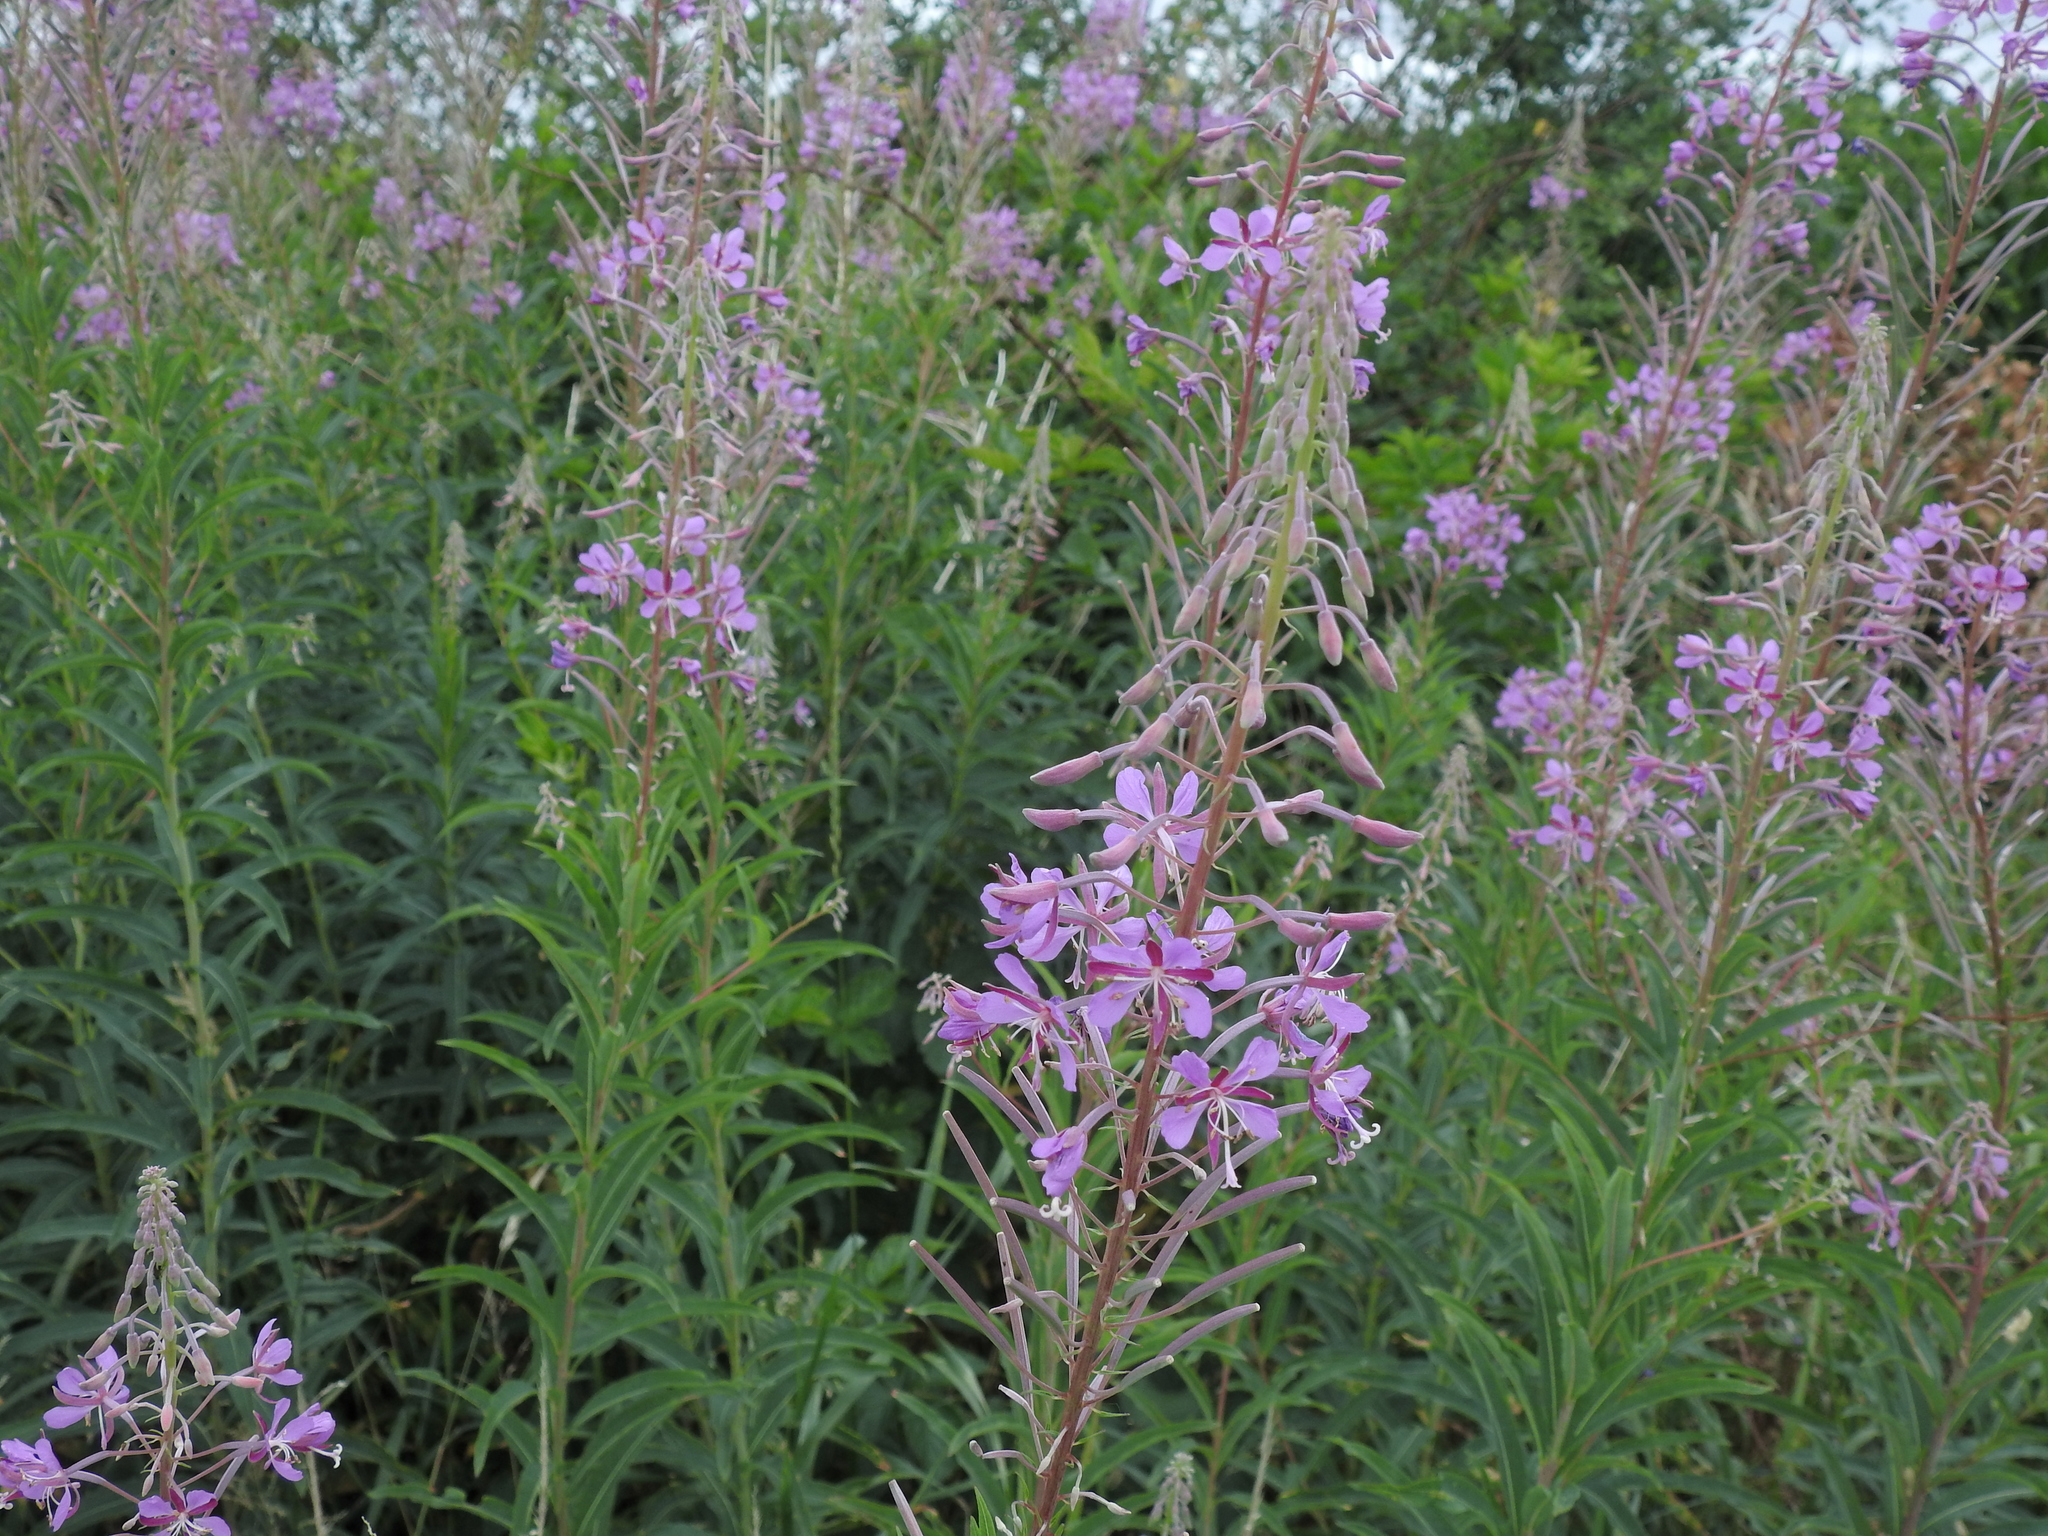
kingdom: Plantae
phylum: Tracheophyta
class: Magnoliopsida
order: Myrtales
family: Onagraceae
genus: Chamaenerion
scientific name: Chamaenerion angustifolium
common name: Fireweed
